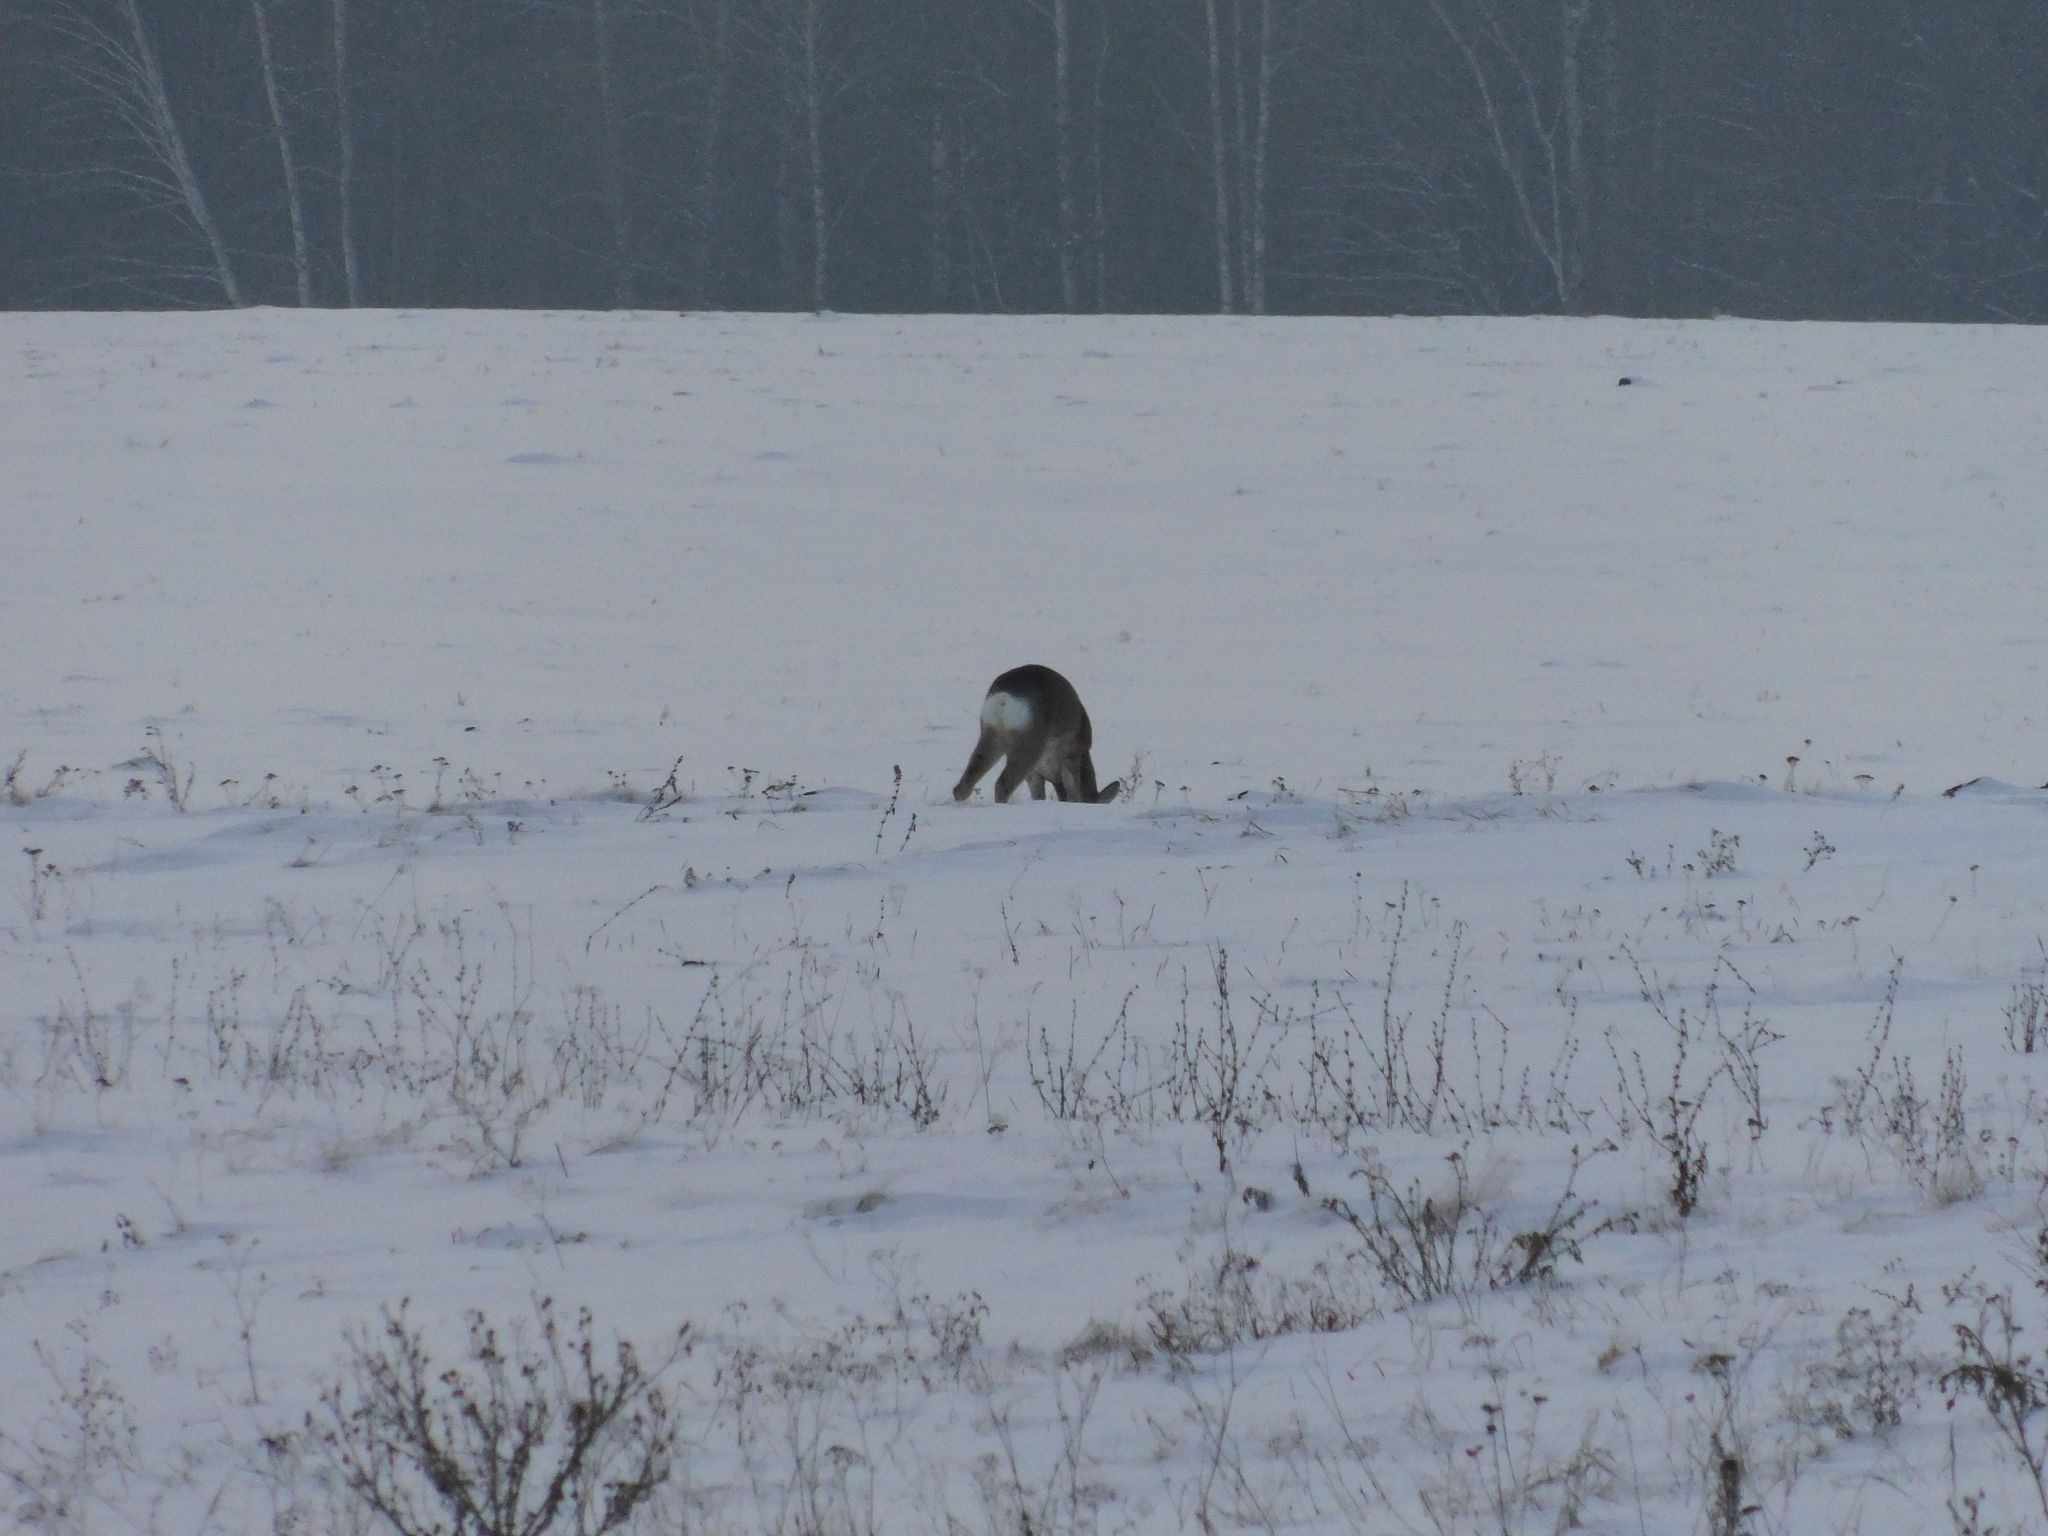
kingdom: Animalia
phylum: Chordata
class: Mammalia
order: Artiodactyla
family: Cervidae
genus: Capreolus
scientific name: Capreolus pygargus
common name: Siberian roe
